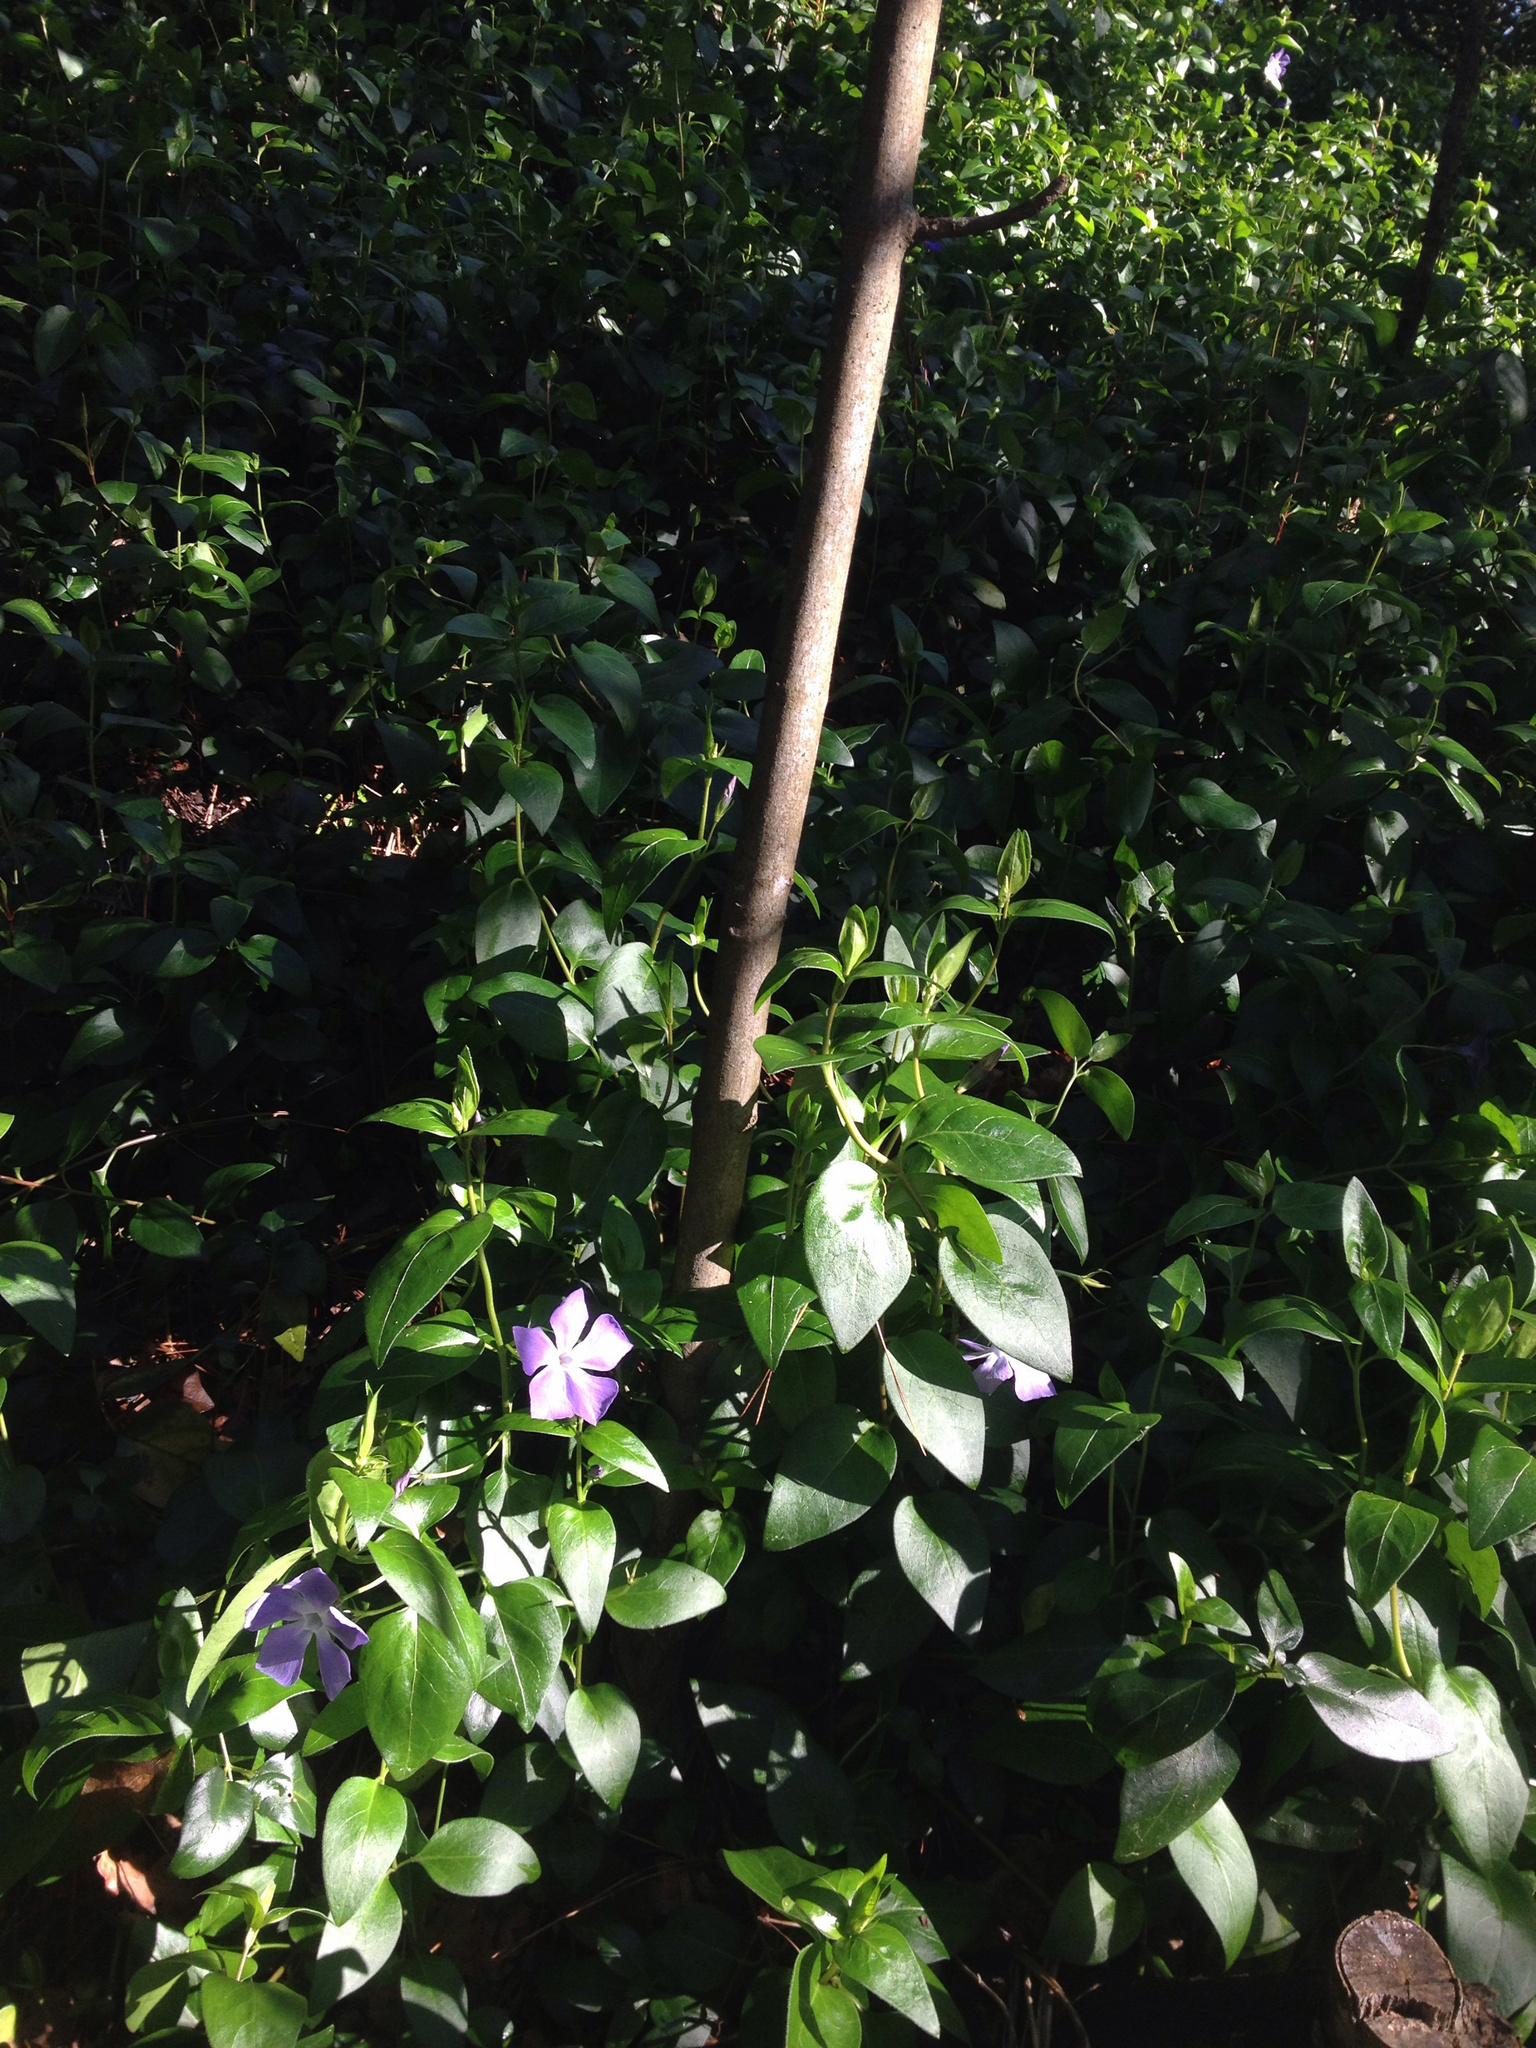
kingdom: Plantae
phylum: Tracheophyta
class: Magnoliopsida
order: Gentianales
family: Apocynaceae
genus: Vinca
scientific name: Vinca major
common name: Greater periwinkle
